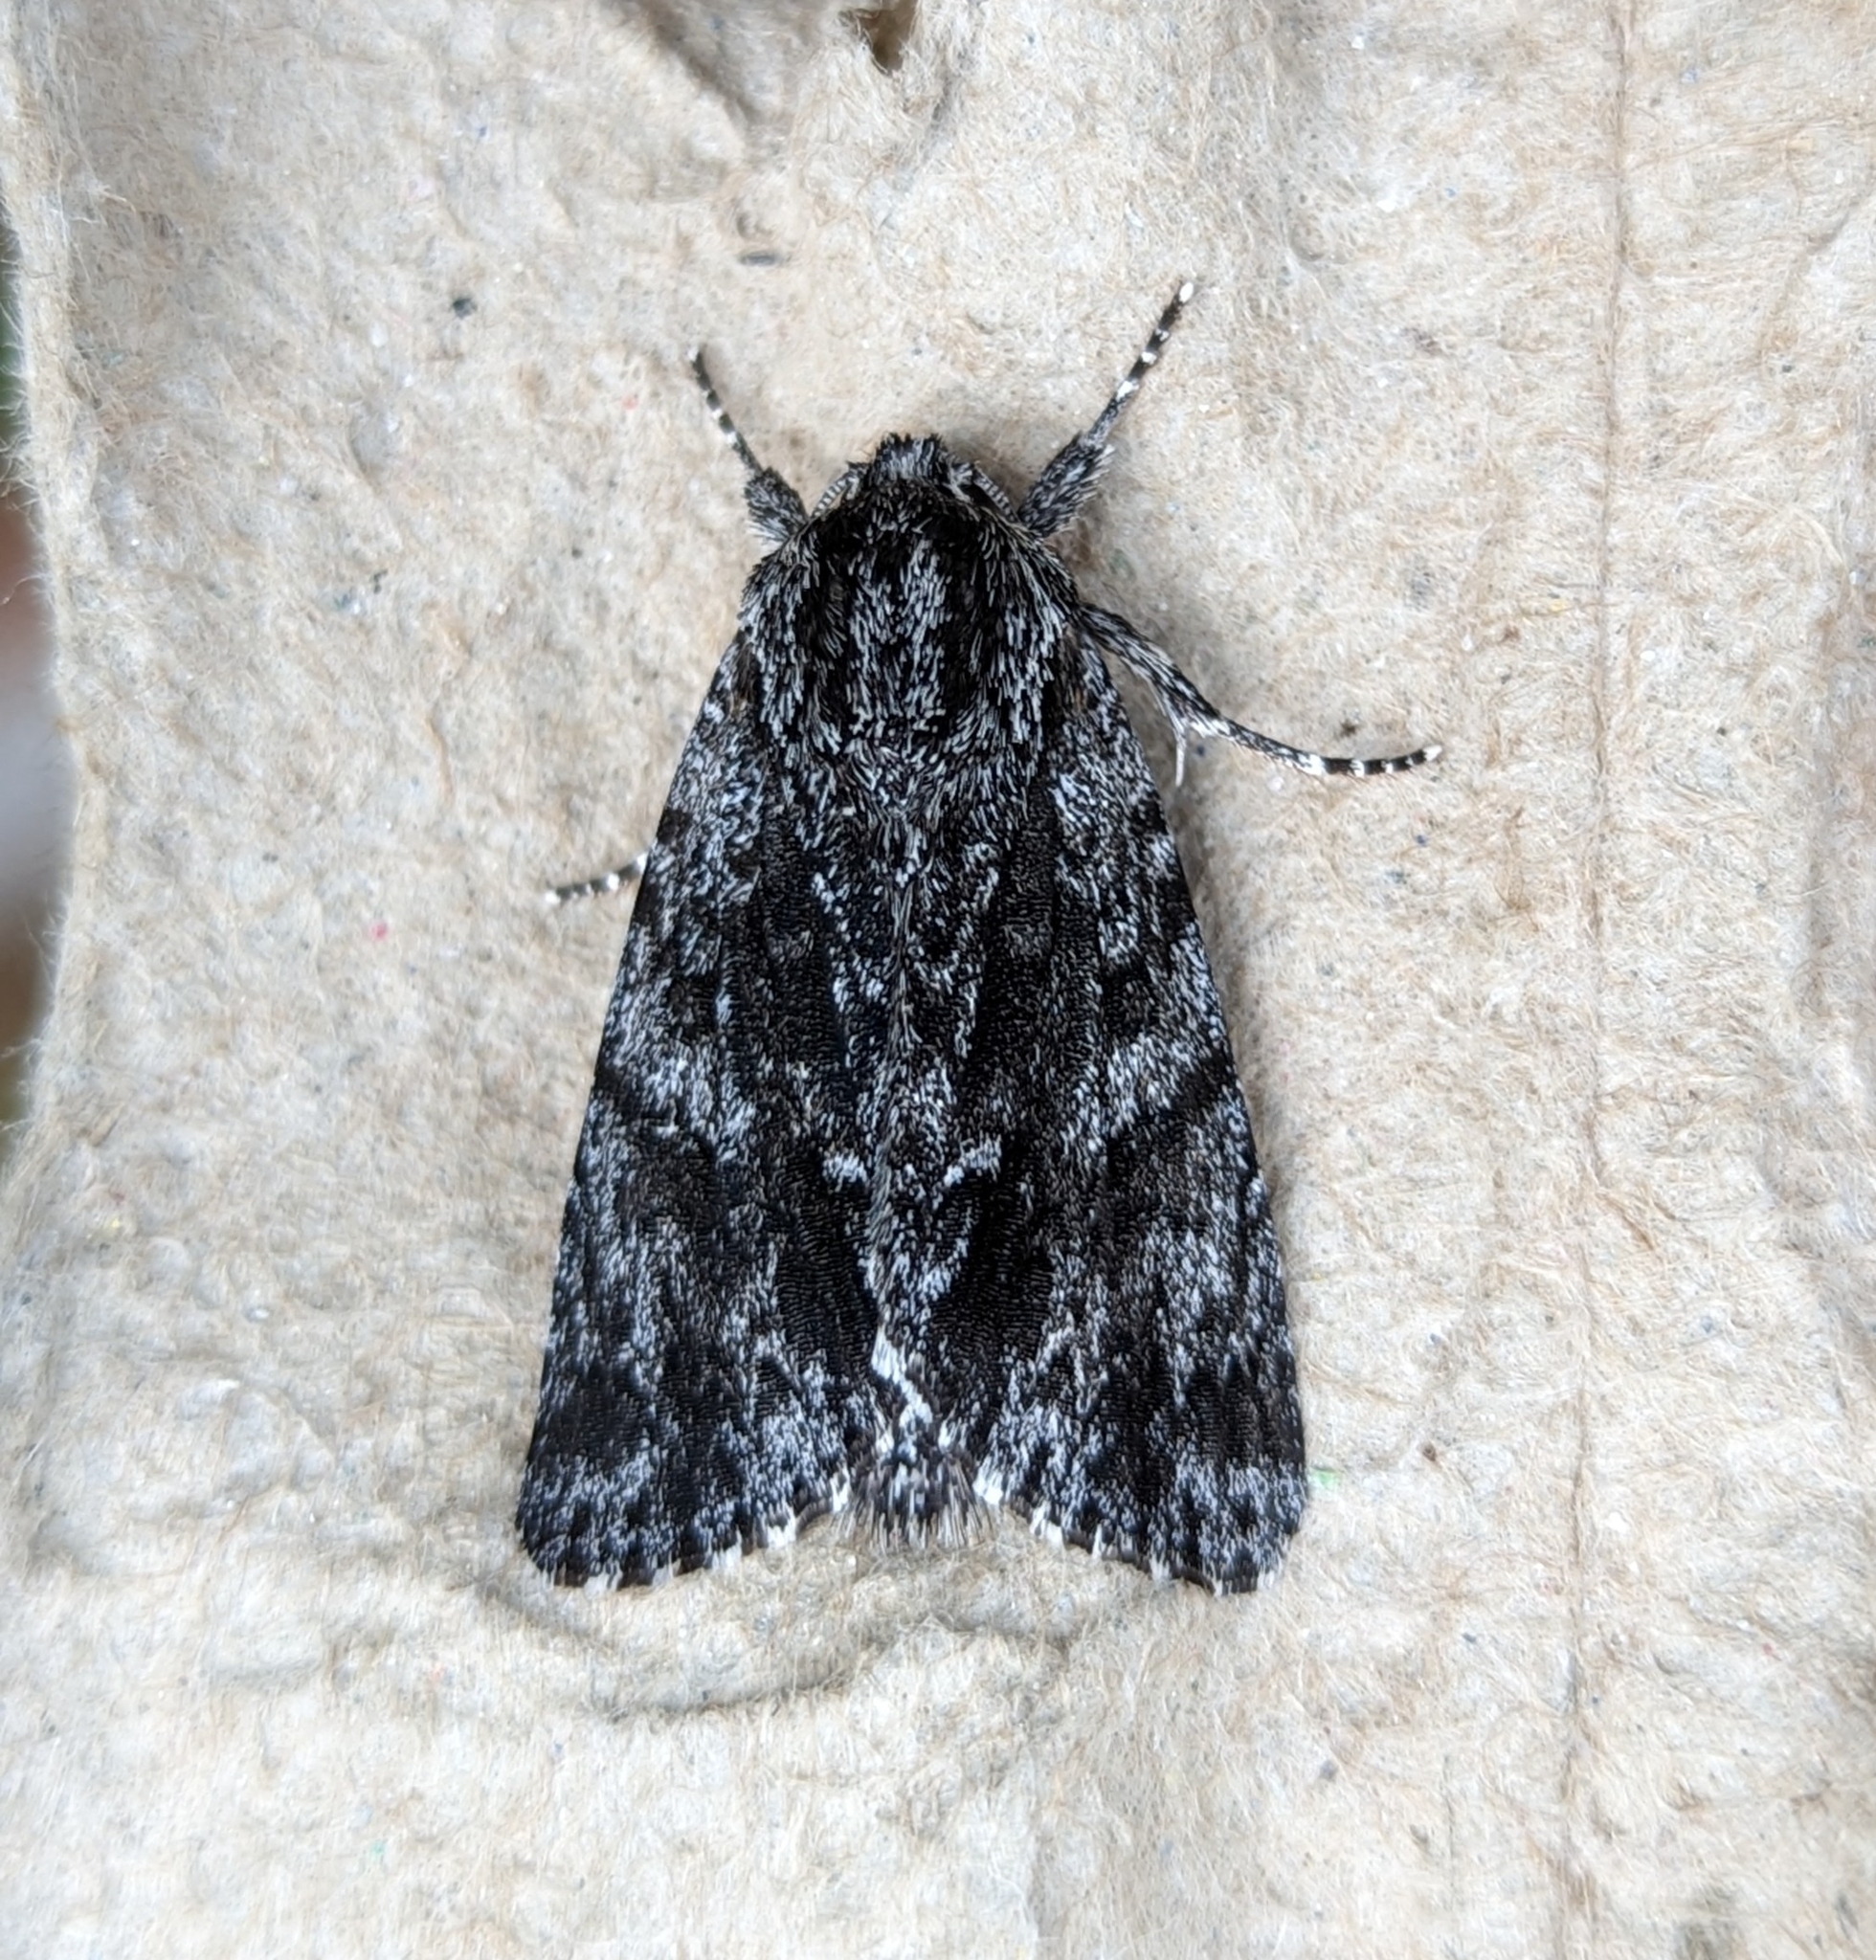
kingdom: Animalia
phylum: Arthropoda
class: Insecta
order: Lepidoptera
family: Noctuidae
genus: Acronicta
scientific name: Acronicta perdita
